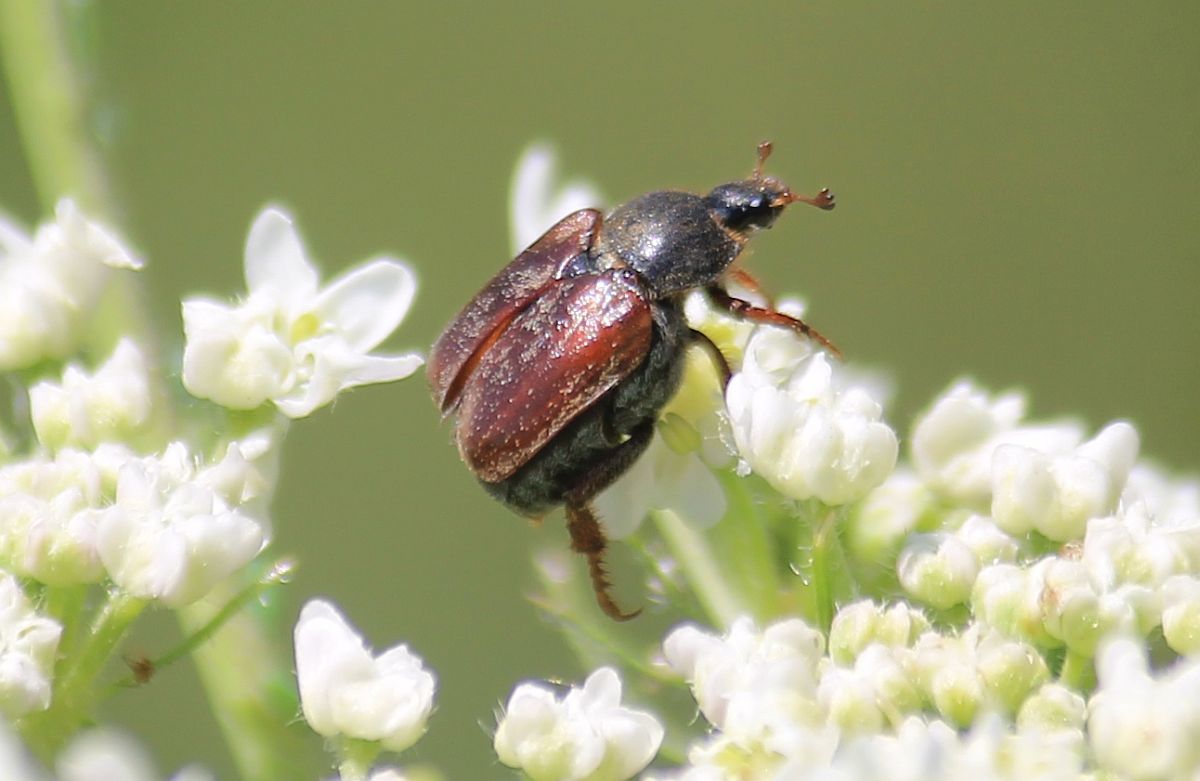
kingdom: Animalia
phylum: Arthropoda
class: Insecta
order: Coleoptera
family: Scarabaeidae
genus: Hoplia
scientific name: Hoplia philanthus
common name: Welsh chafer
